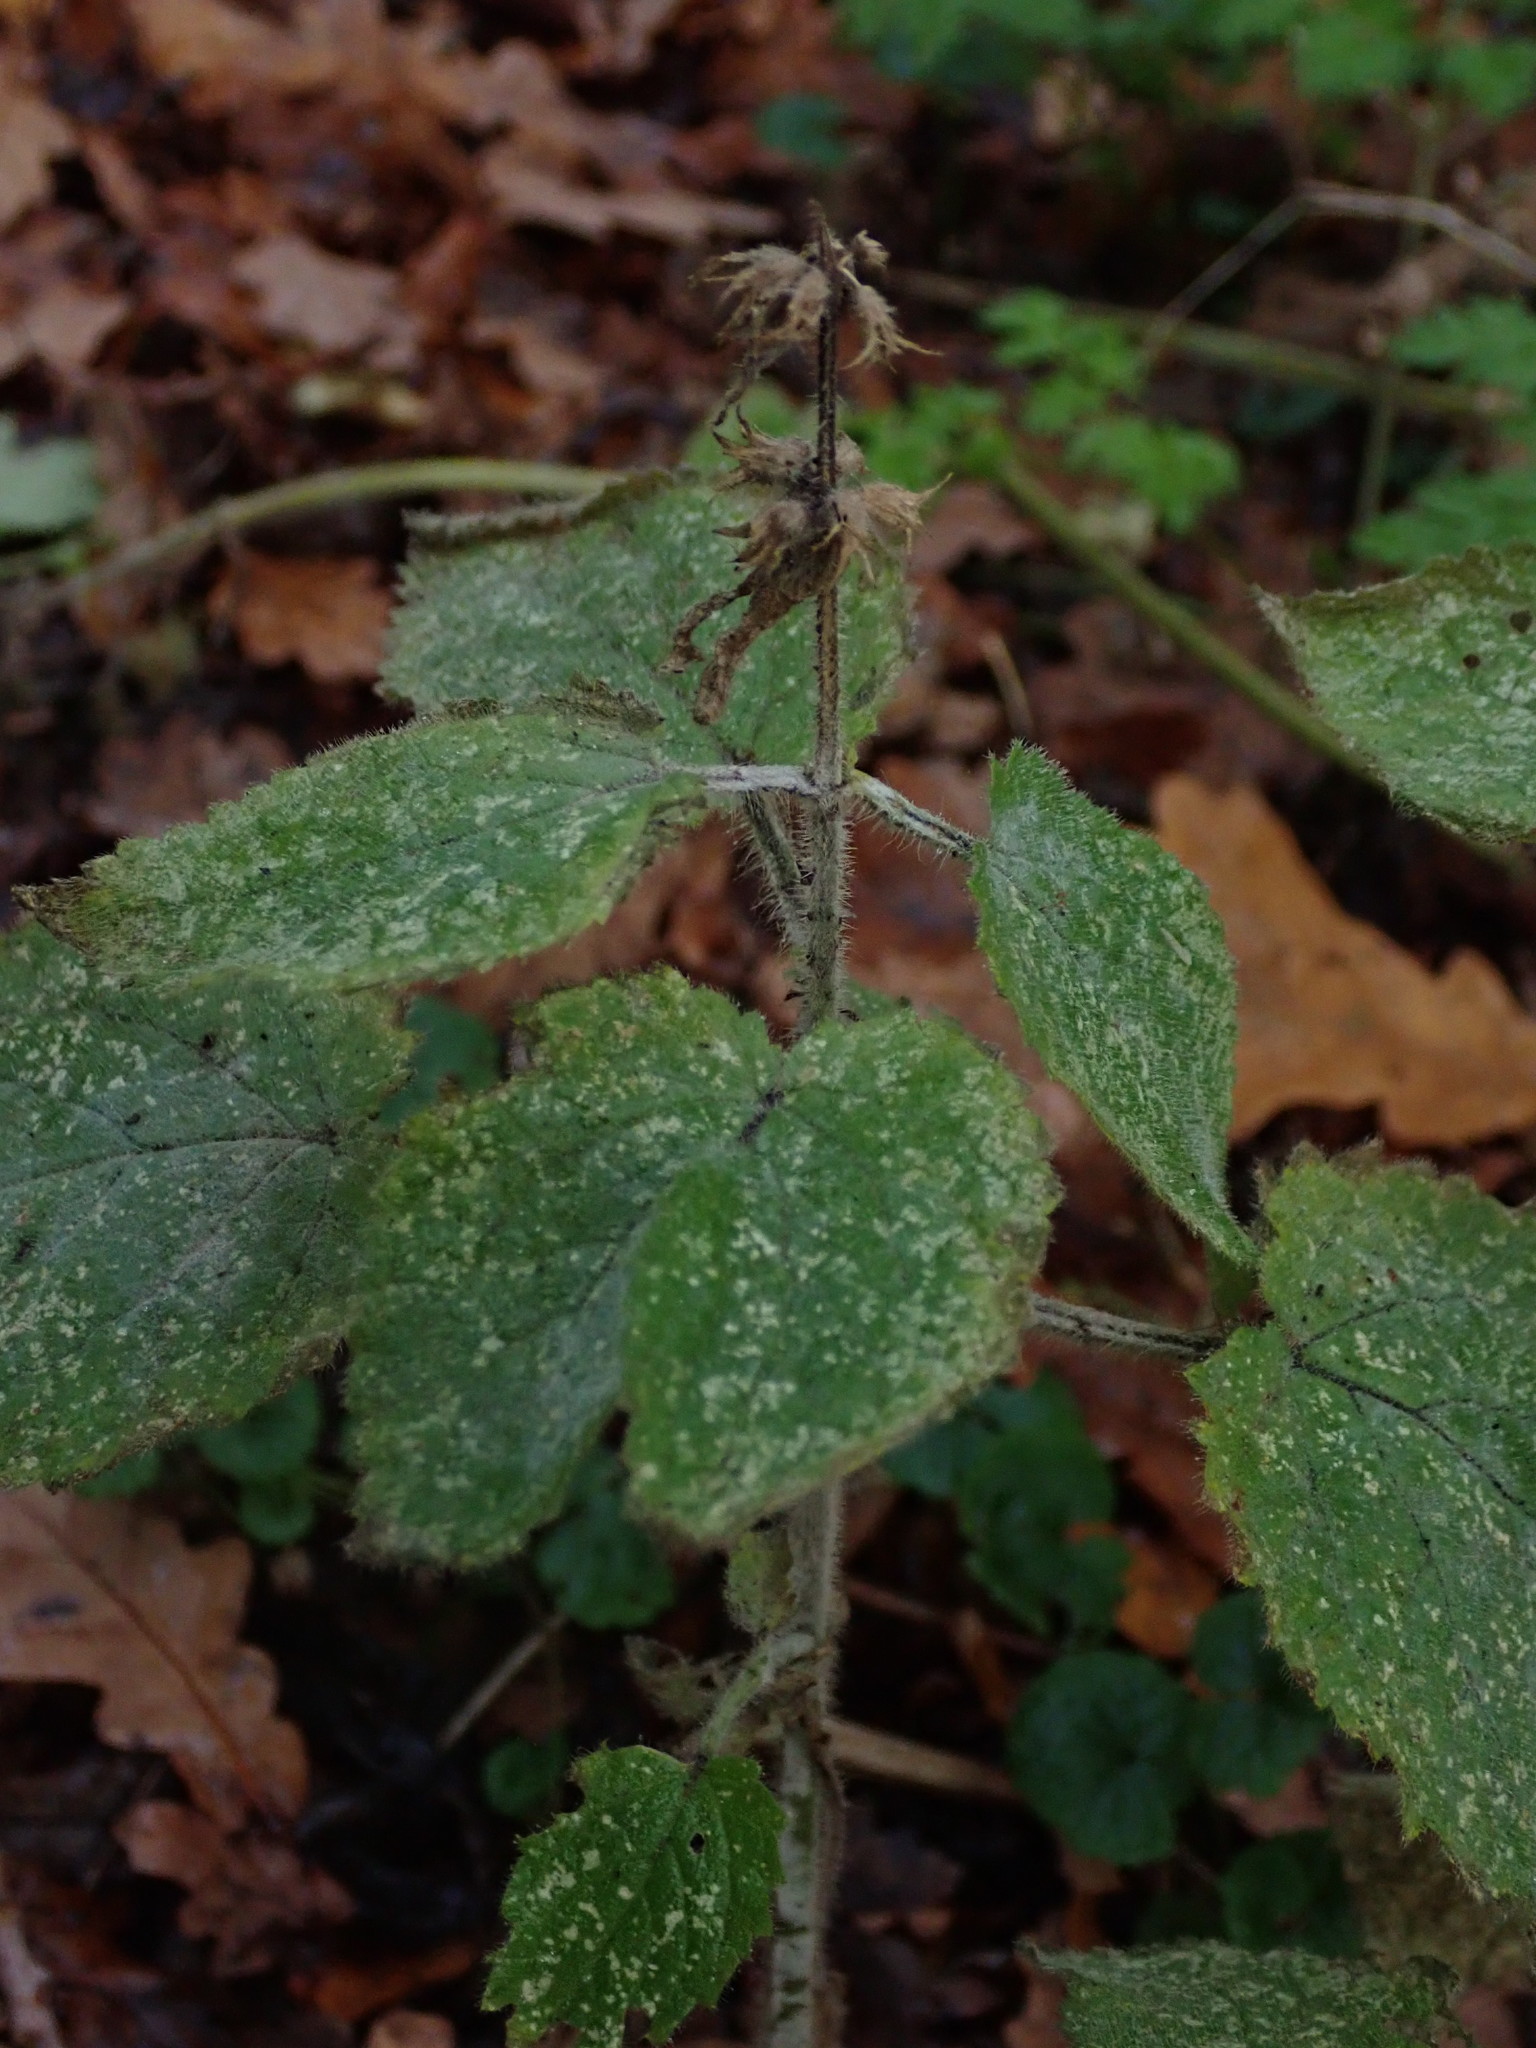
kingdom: Plantae
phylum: Tracheophyta
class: Magnoliopsida
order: Lamiales
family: Lamiaceae
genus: Stachys
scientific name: Stachys sylvatica
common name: Hedge woundwort
